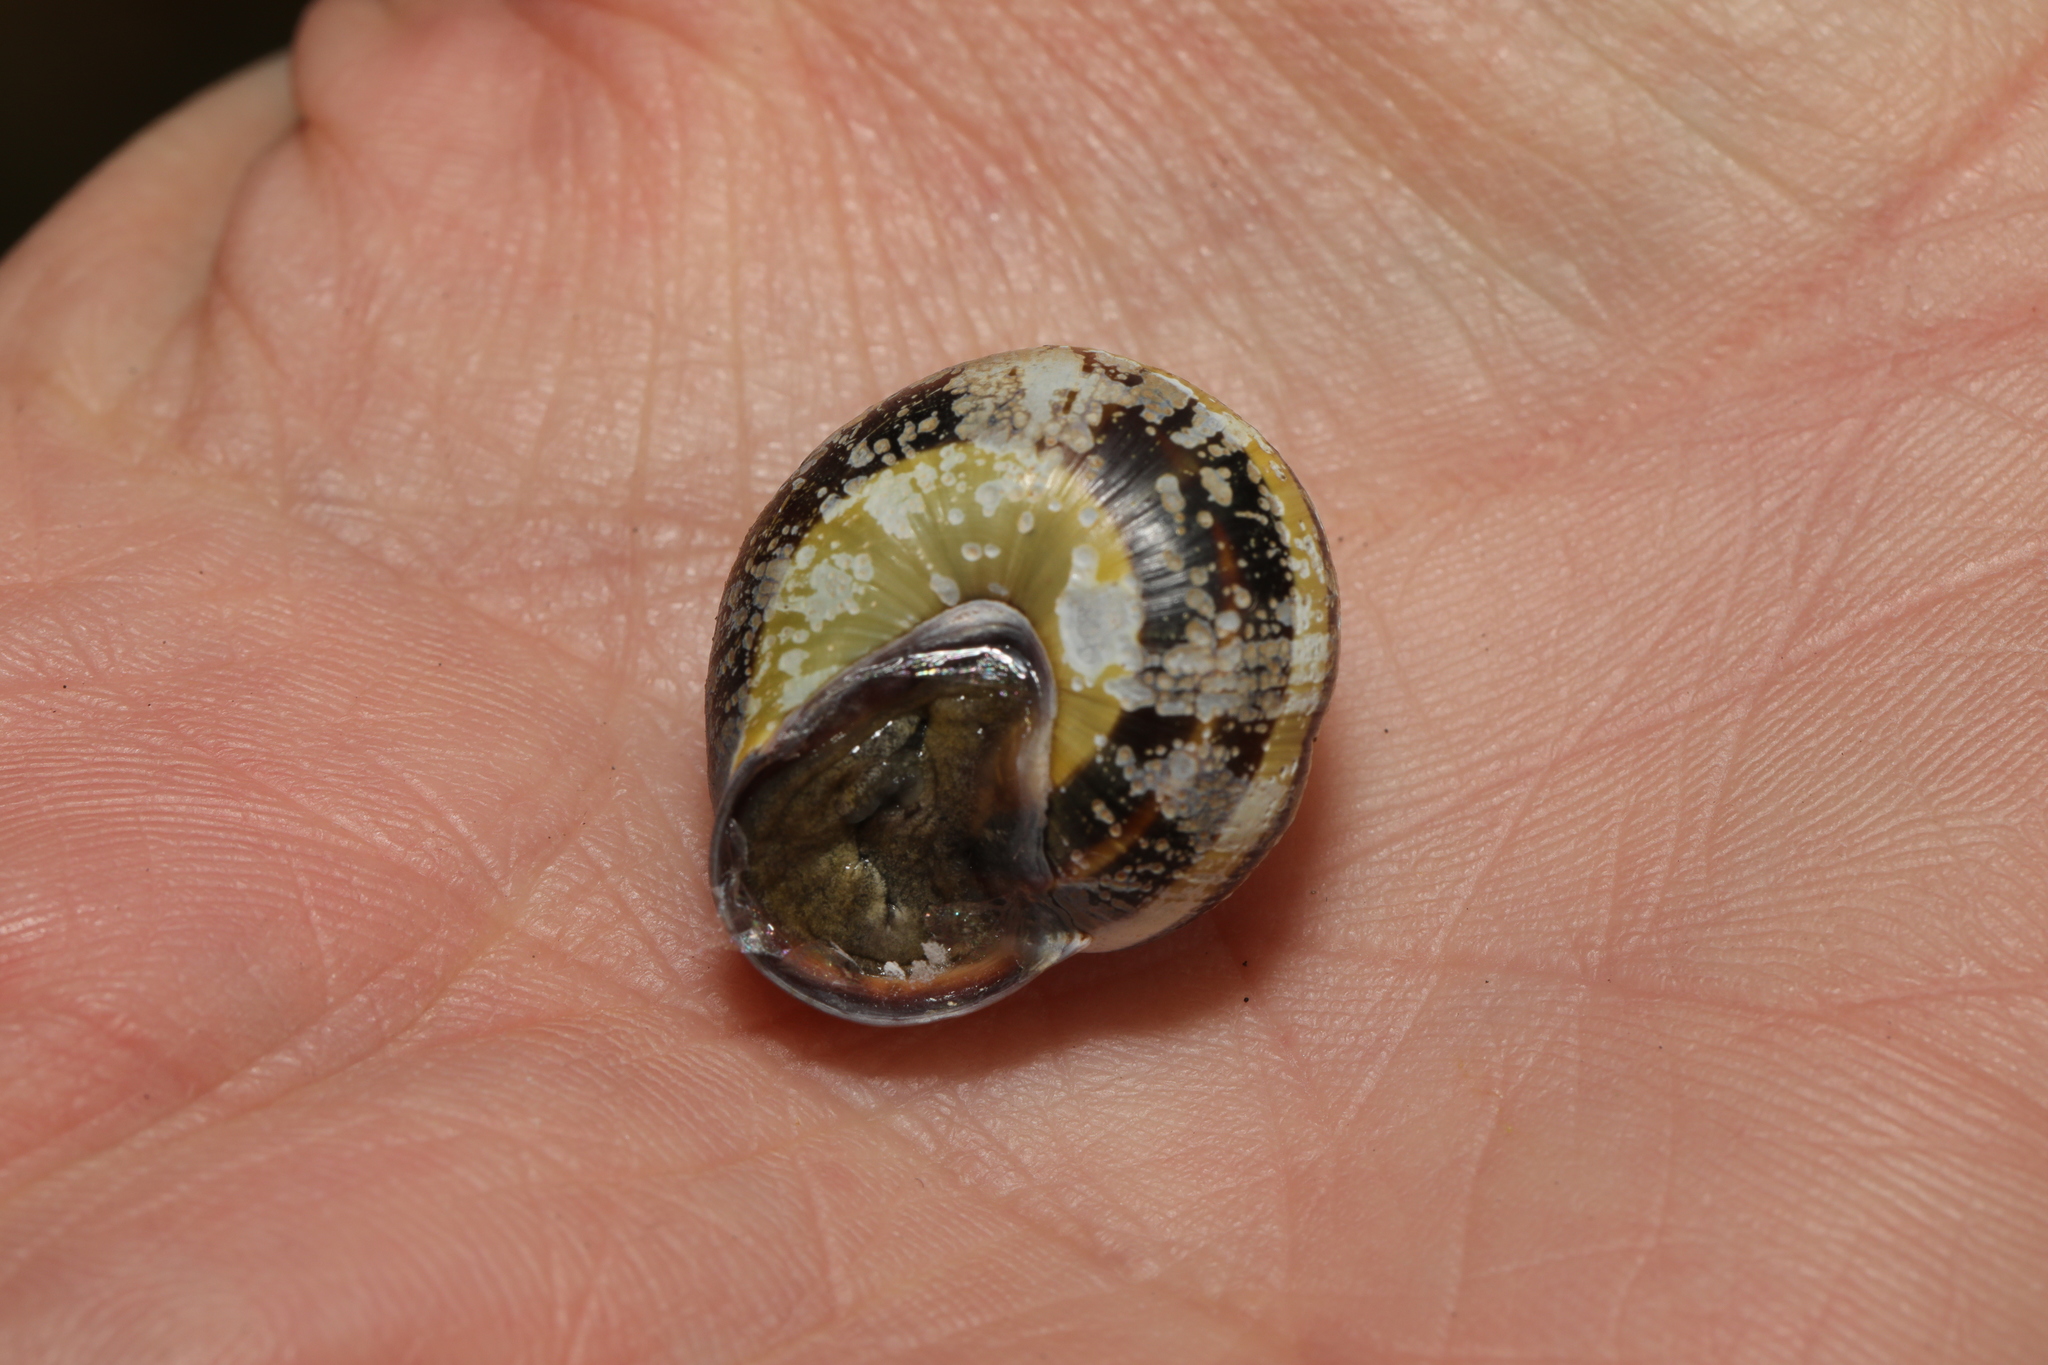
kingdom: Animalia
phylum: Mollusca
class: Gastropoda
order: Stylommatophora
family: Helicidae
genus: Cepaea
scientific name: Cepaea nemoralis
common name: Grovesnail
